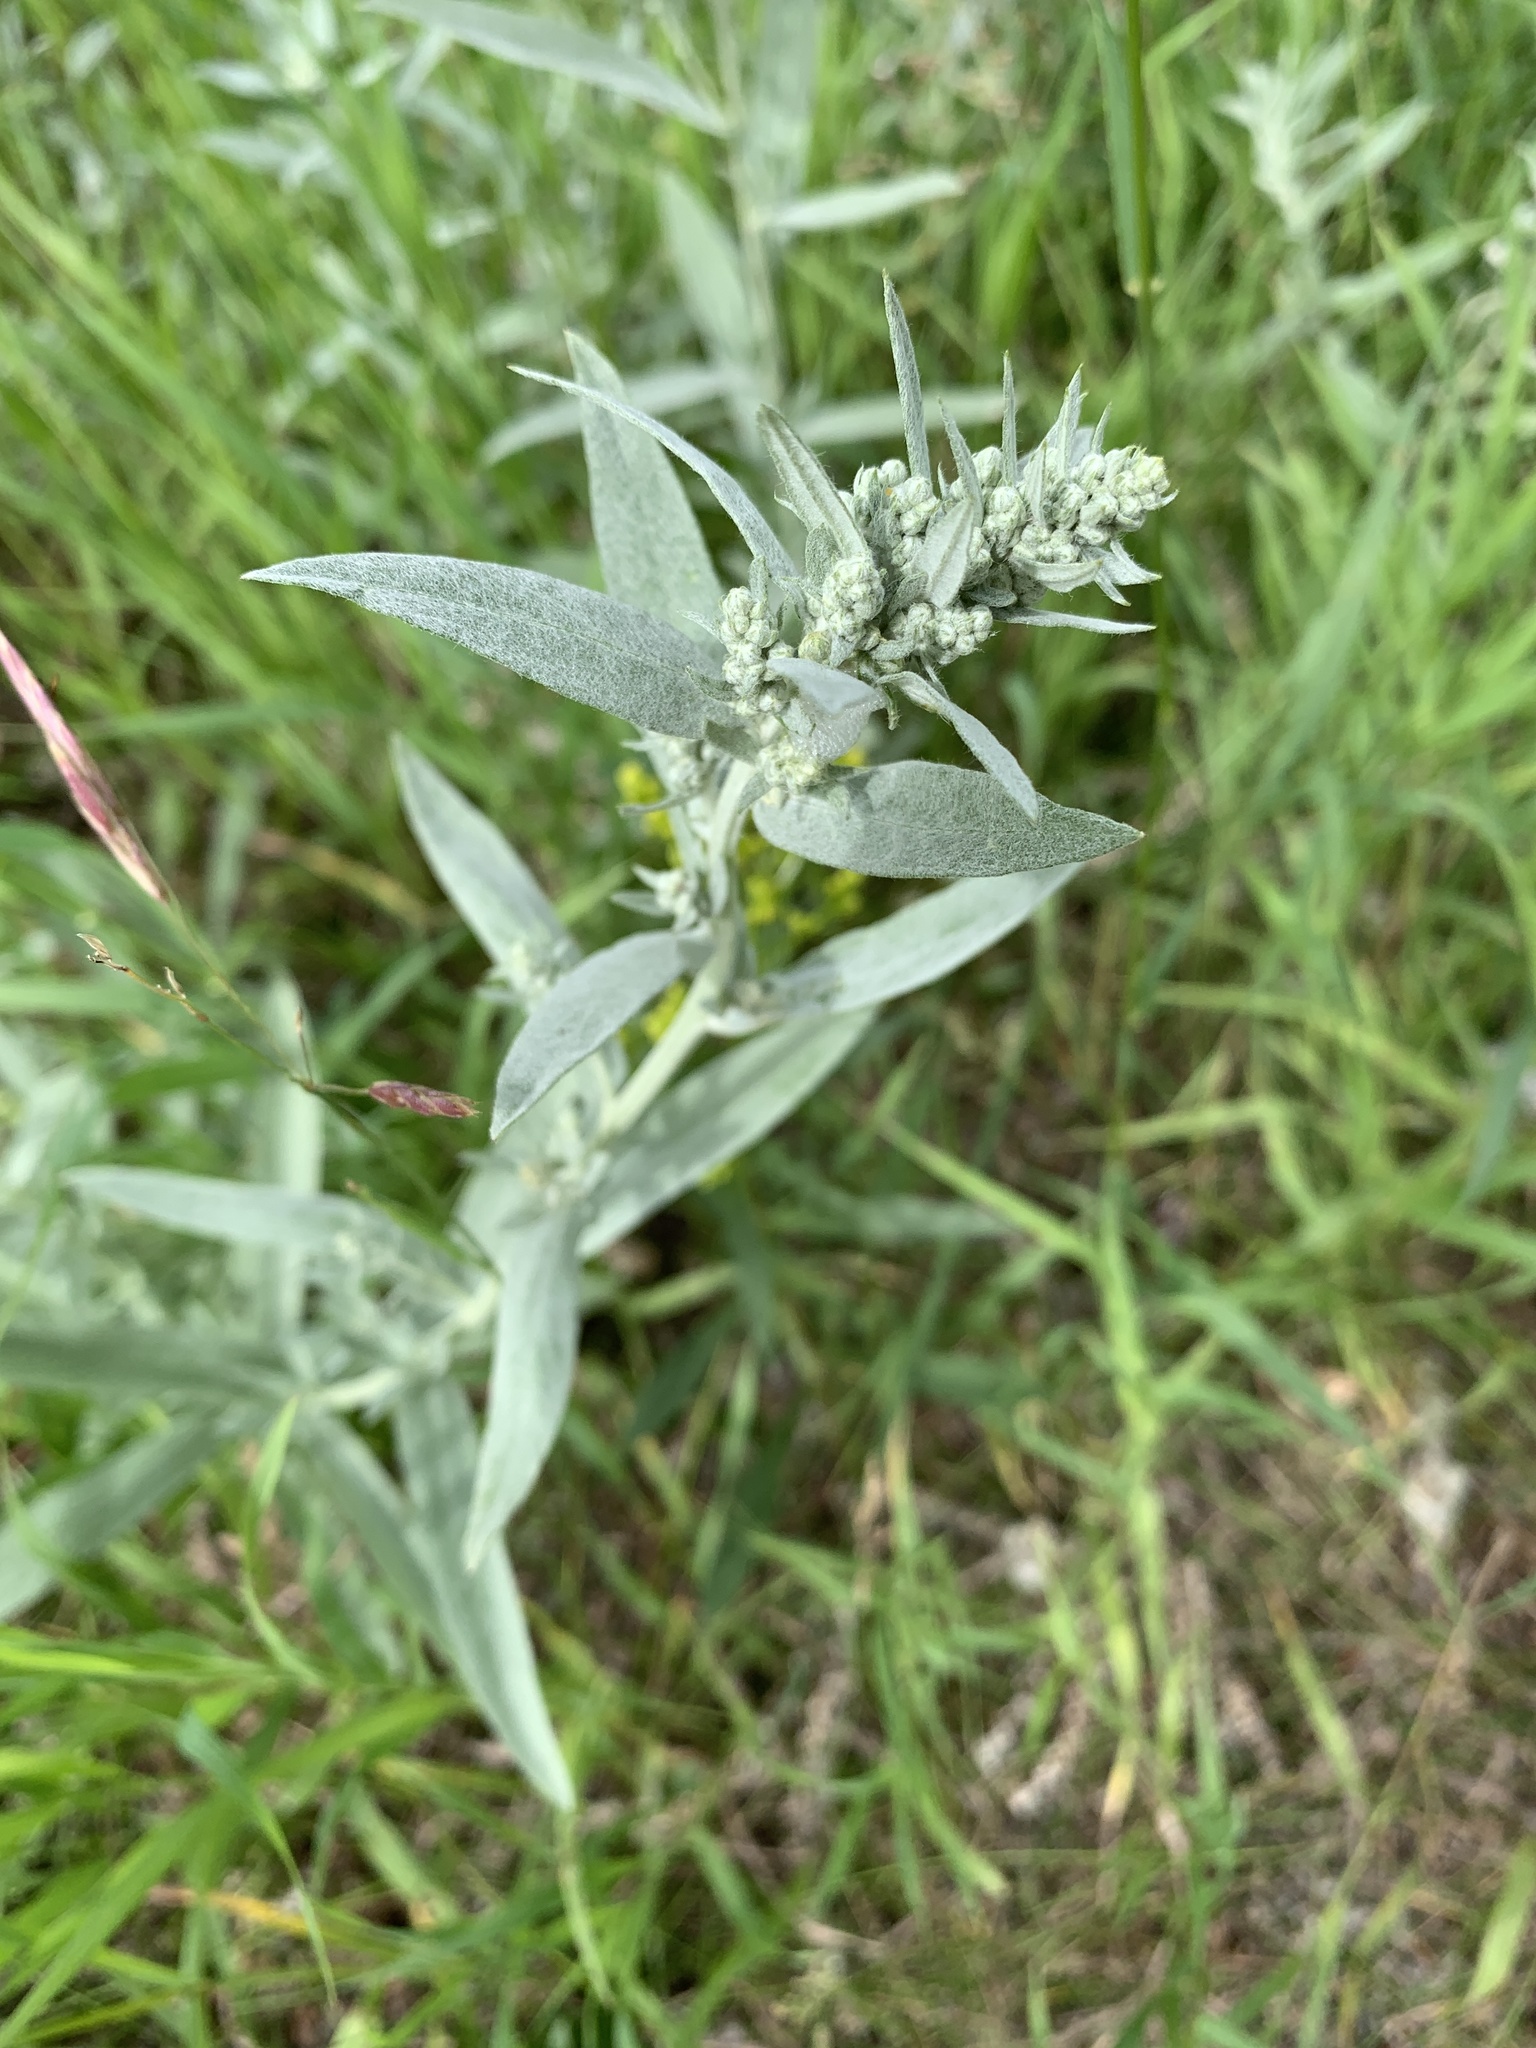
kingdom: Plantae
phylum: Tracheophyta
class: Magnoliopsida
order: Asterales
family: Asteraceae
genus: Artemisia
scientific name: Artemisia ludoviciana
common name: Western mugwort
